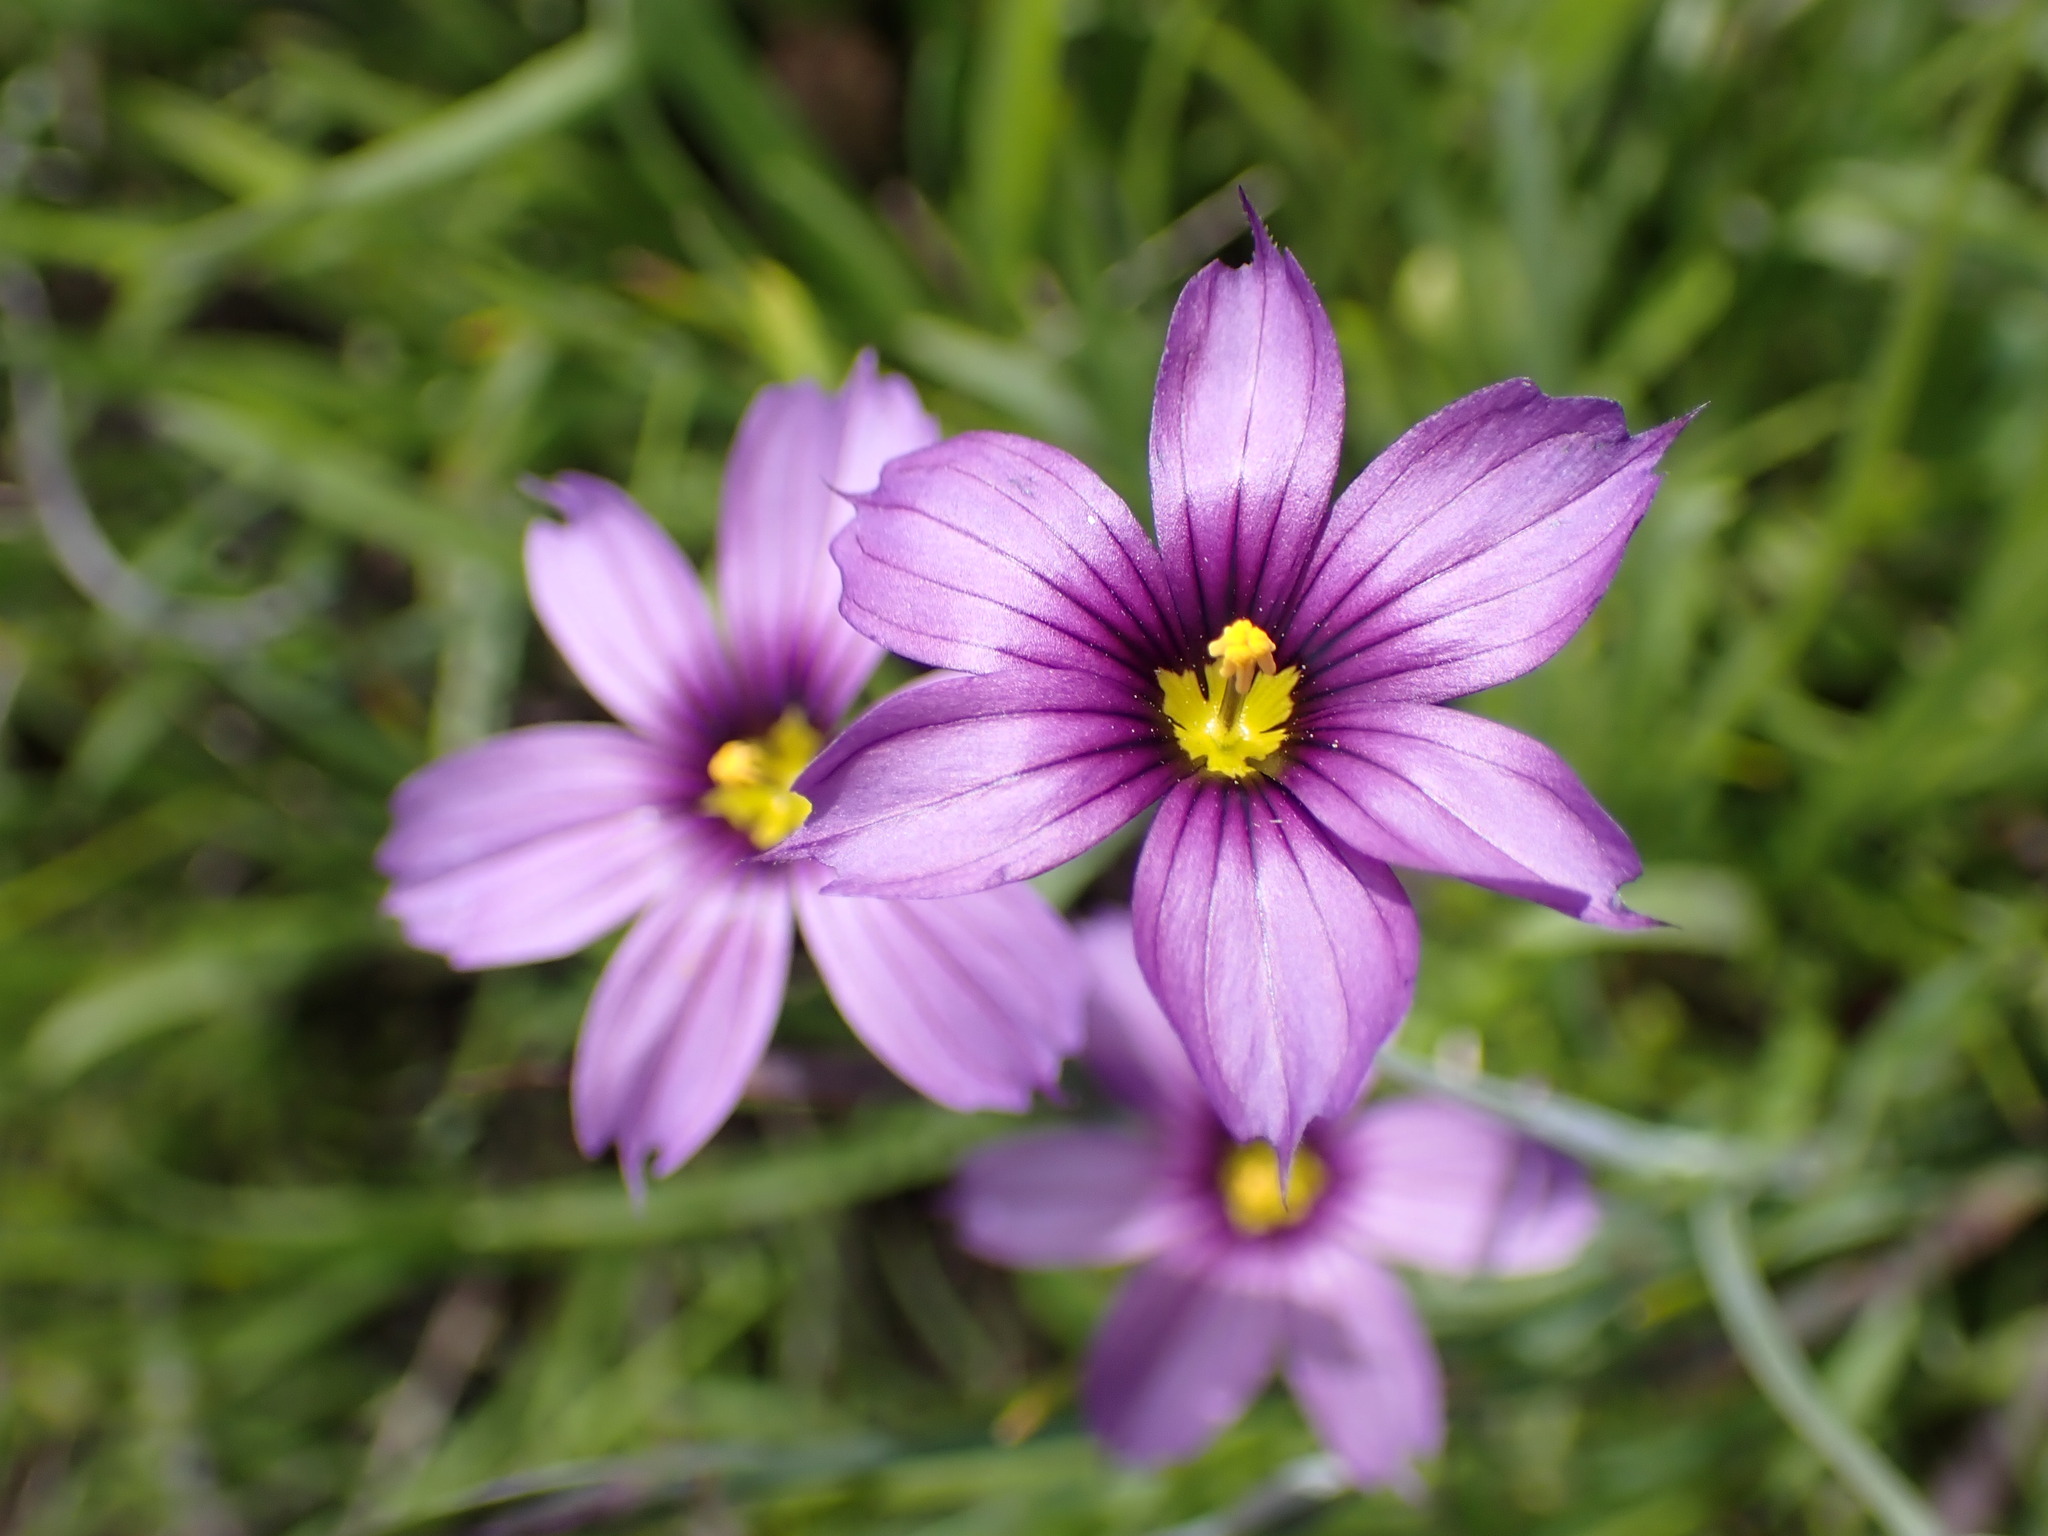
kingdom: Plantae
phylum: Tracheophyta
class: Liliopsida
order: Asparagales
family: Iridaceae
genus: Sisyrinchium
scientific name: Sisyrinchium bellum
